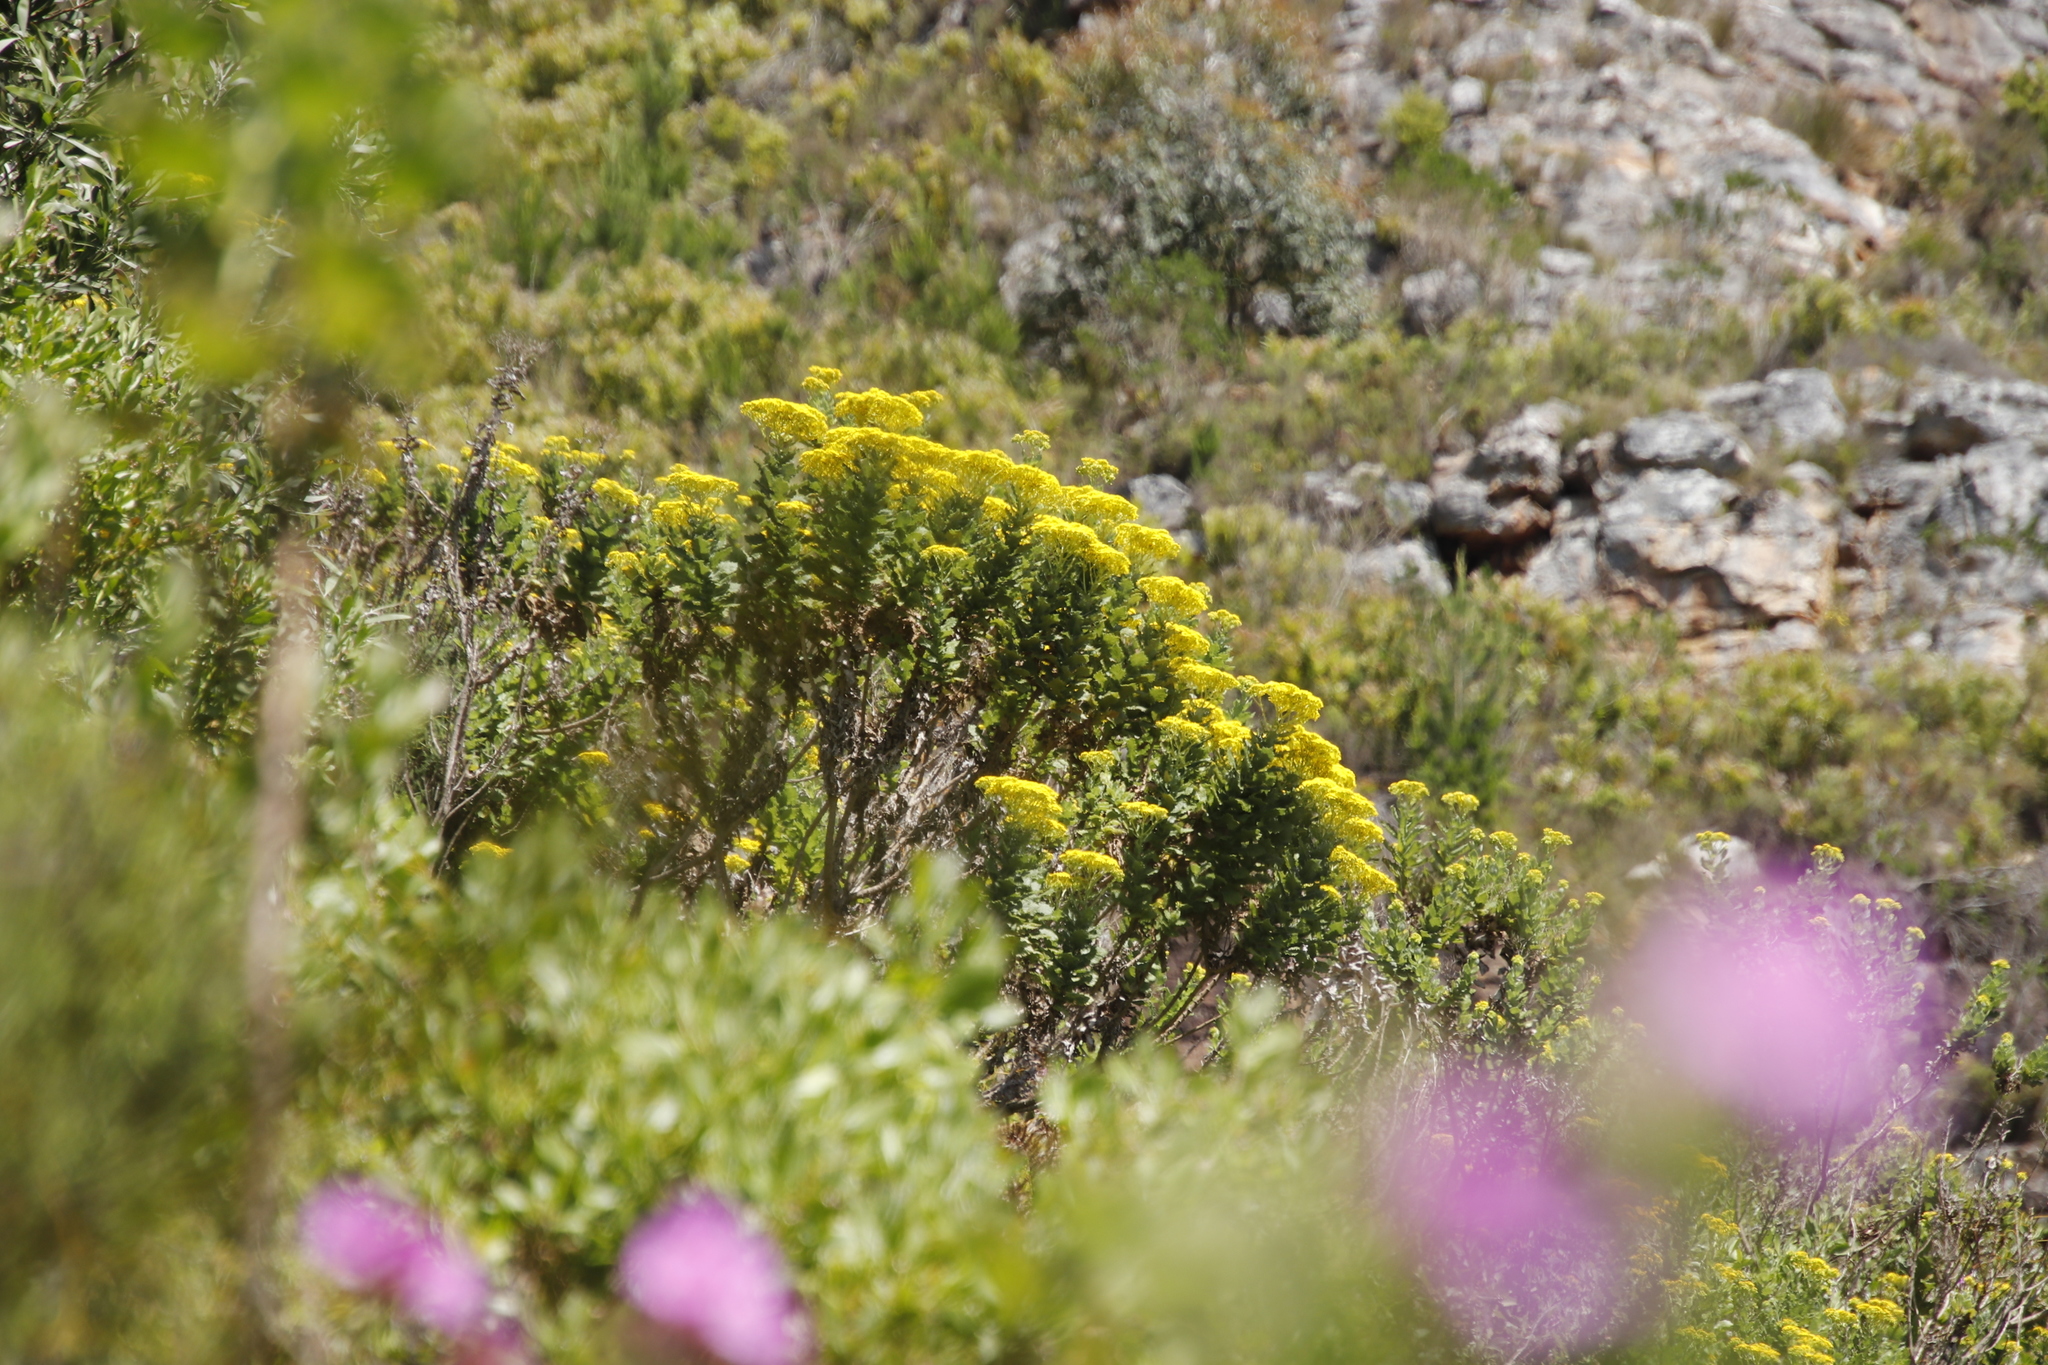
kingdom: Plantae
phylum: Tracheophyta
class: Magnoliopsida
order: Asterales
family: Asteraceae
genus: Senecio
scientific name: Senecio rigidus
